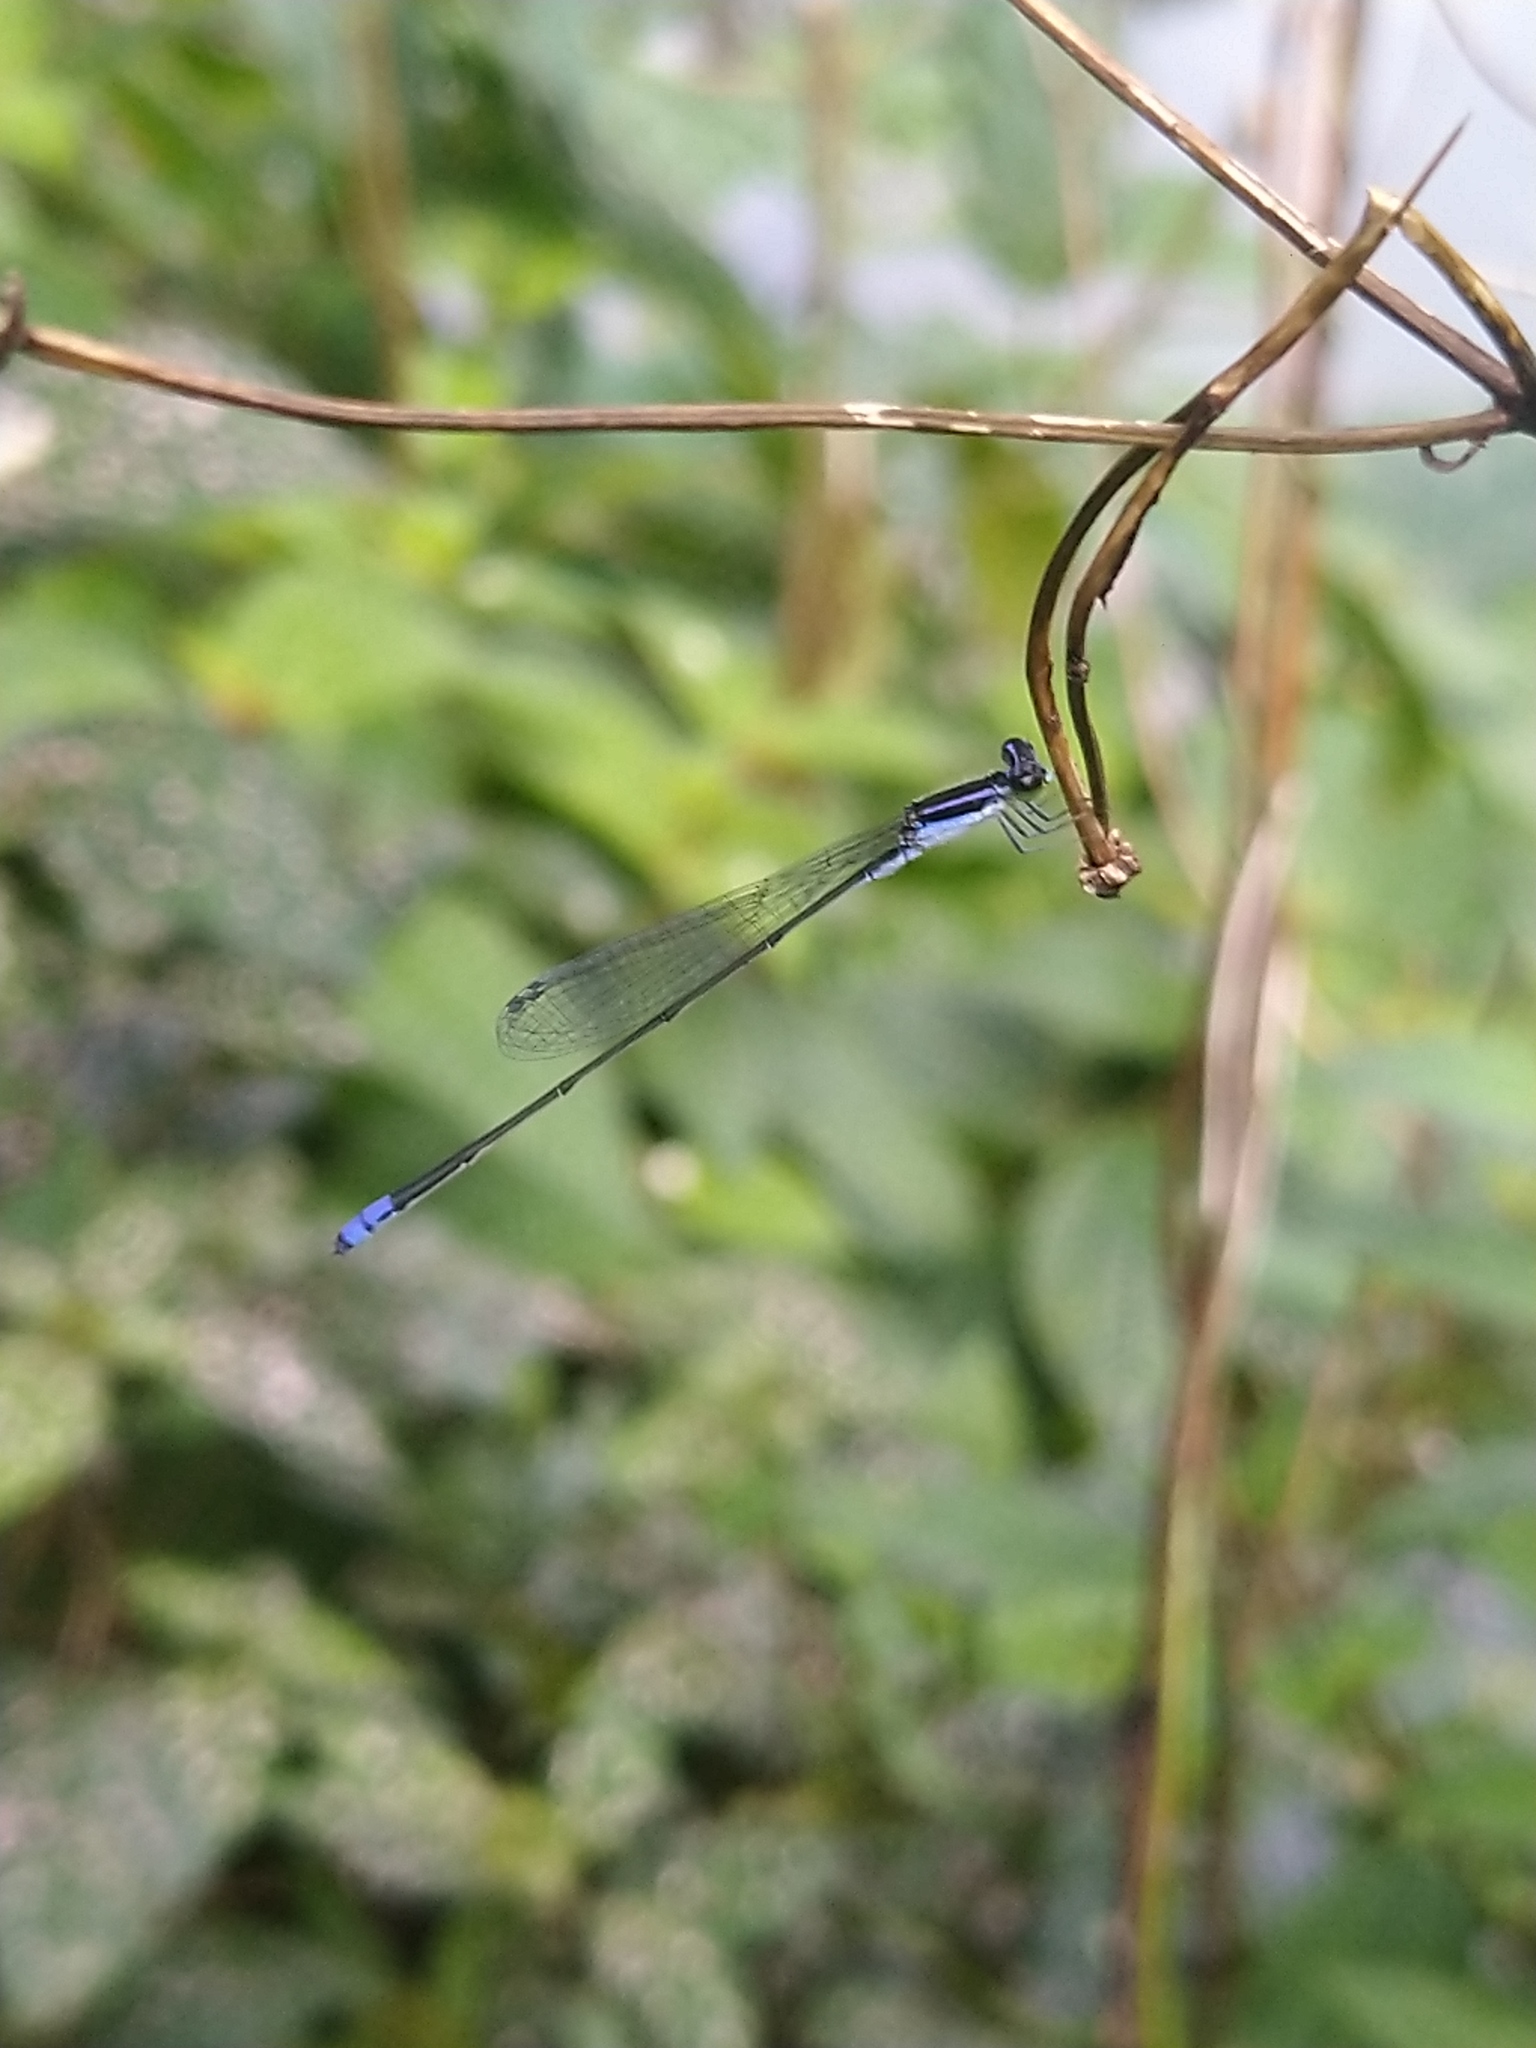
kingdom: Animalia
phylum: Arthropoda
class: Insecta
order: Odonata
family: Coenagrionidae
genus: Aciagrion
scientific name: Aciagrion approximans
